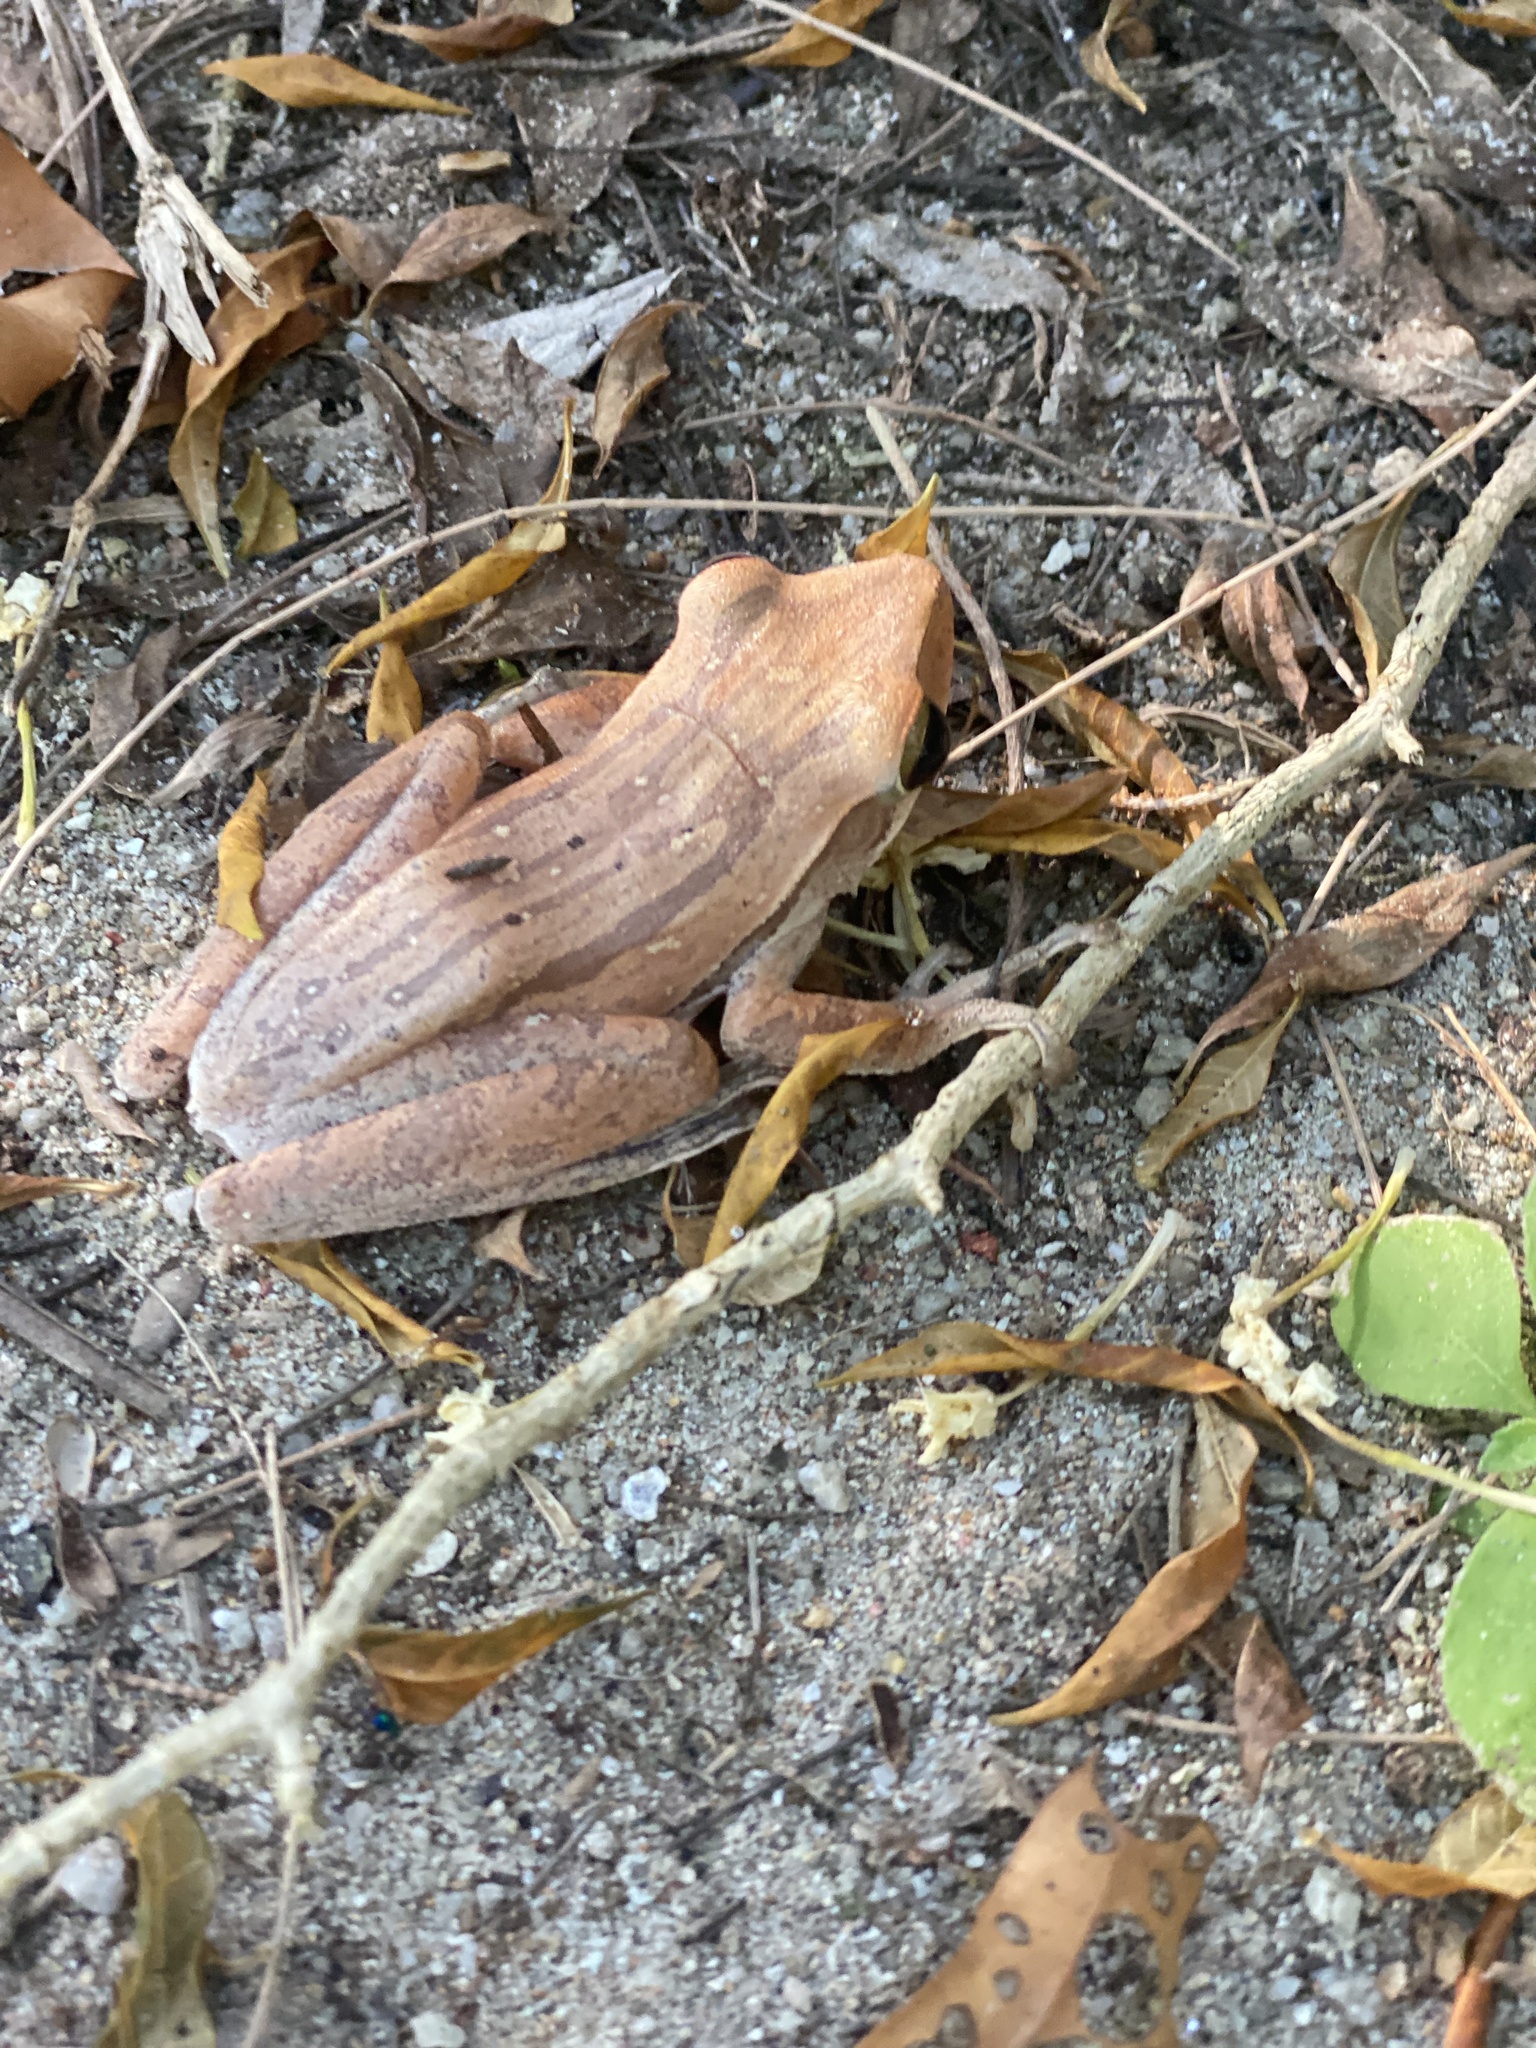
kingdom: Animalia
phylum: Chordata
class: Amphibia
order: Anura
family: Rhacophoridae
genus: Polypedates
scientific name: Polypedates leucomystax
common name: Common tree frog/four-lined tree frog
